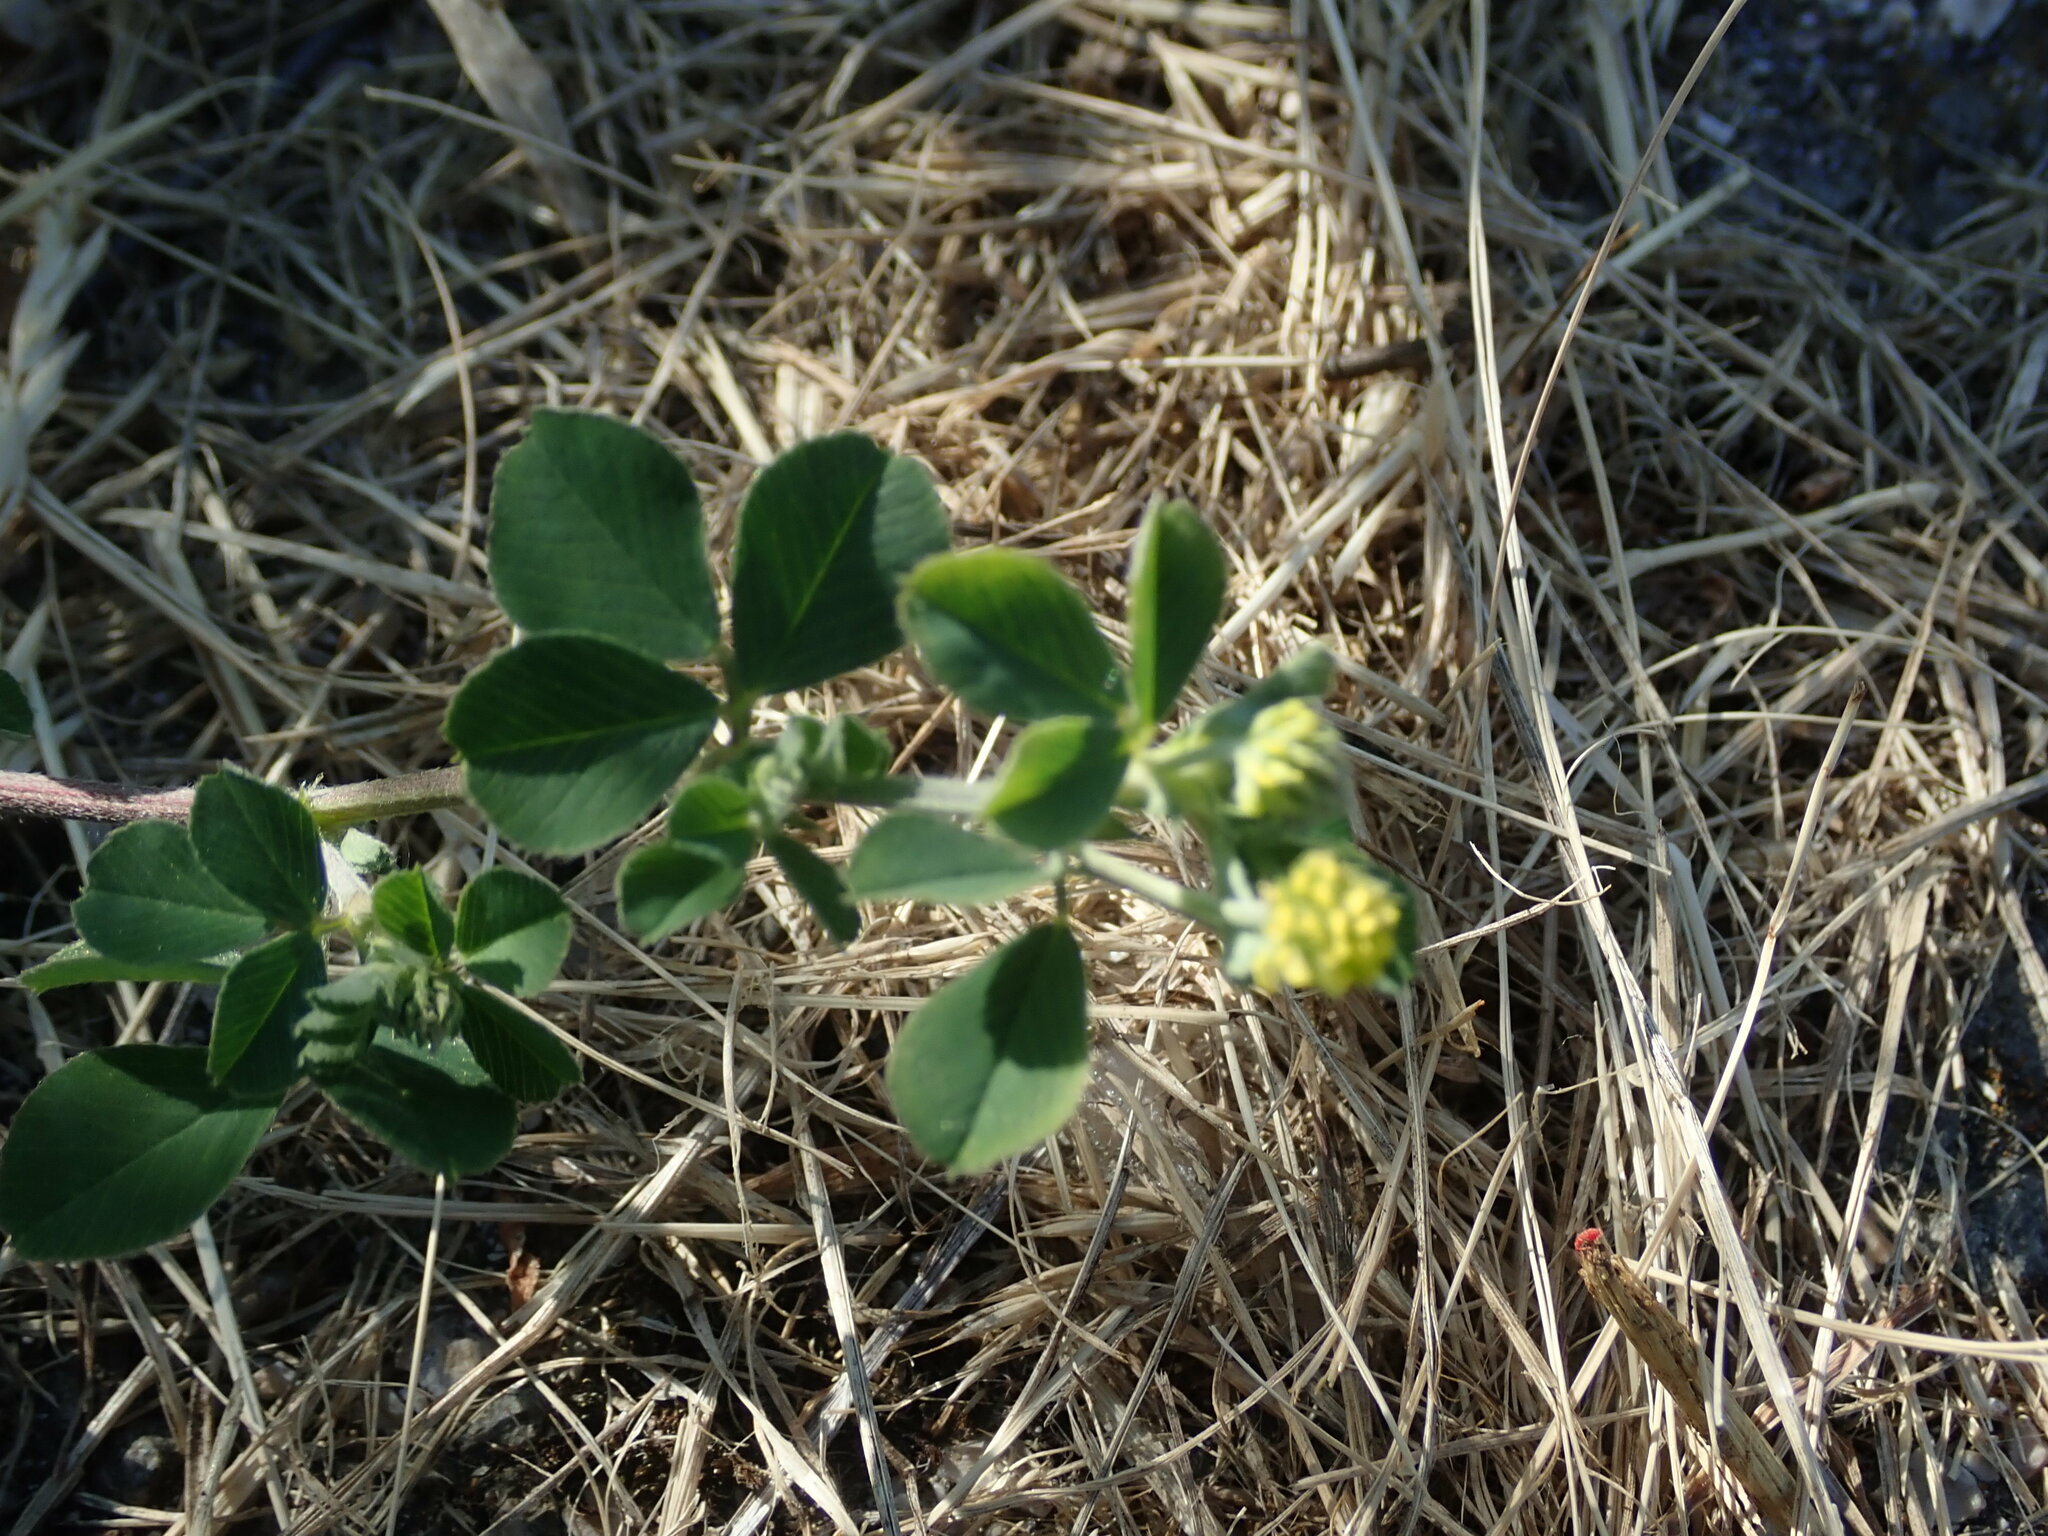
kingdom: Plantae
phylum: Tracheophyta
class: Magnoliopsida
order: Fabales
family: Fabaceae
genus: Medicago
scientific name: Medicago lupulina
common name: Black medick
